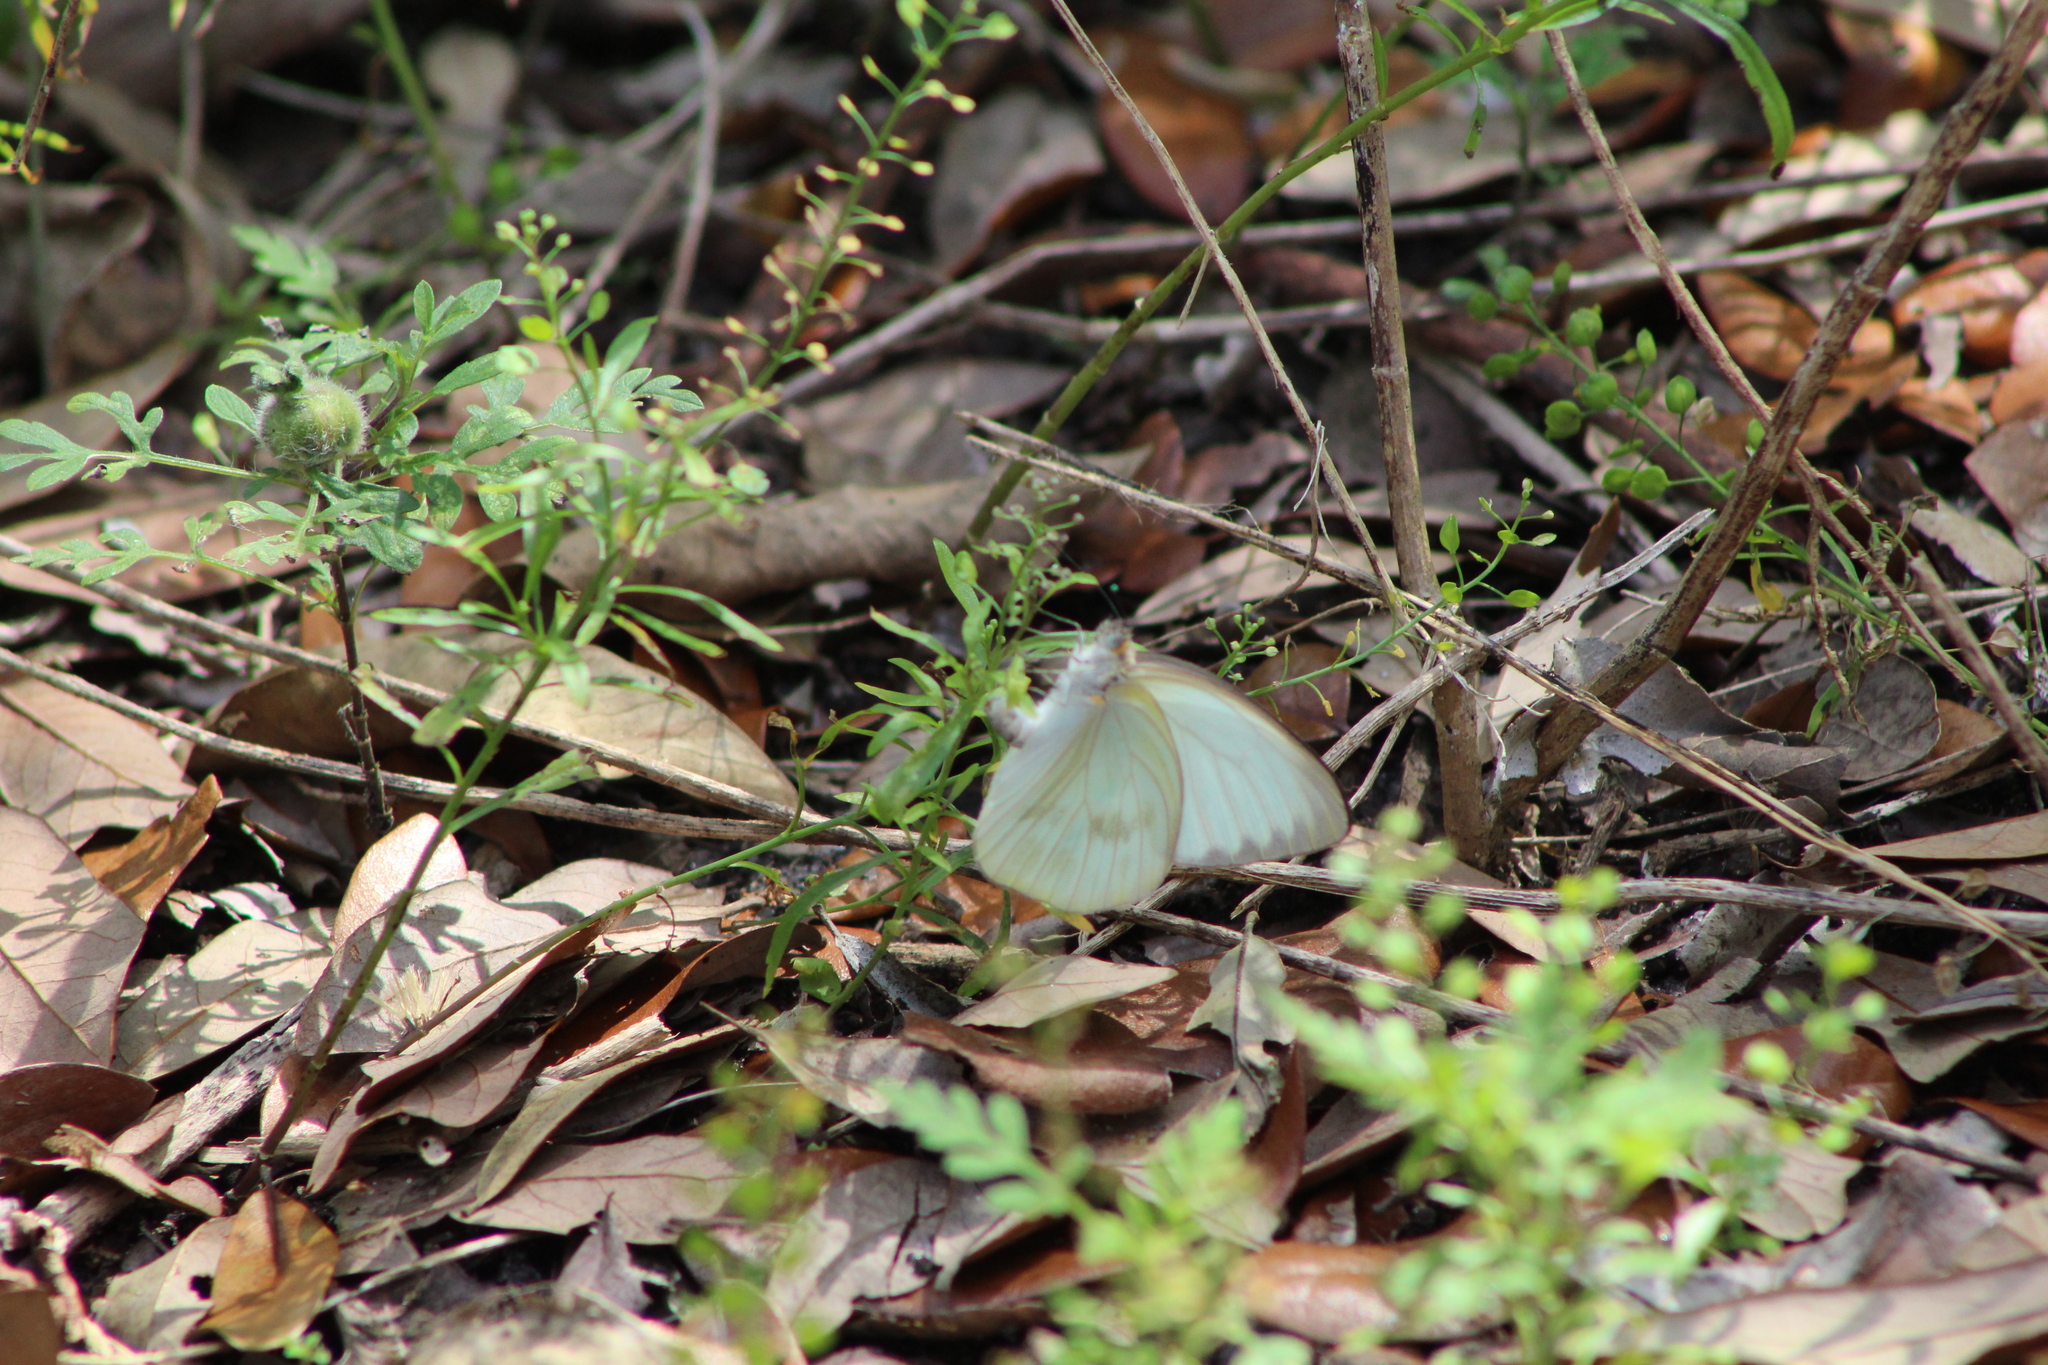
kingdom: Animalia
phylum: Arthropoda
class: Insecta
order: Lepidoptera
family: Pieridae
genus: Ascia
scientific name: Ascia monuste
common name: Great southern white
